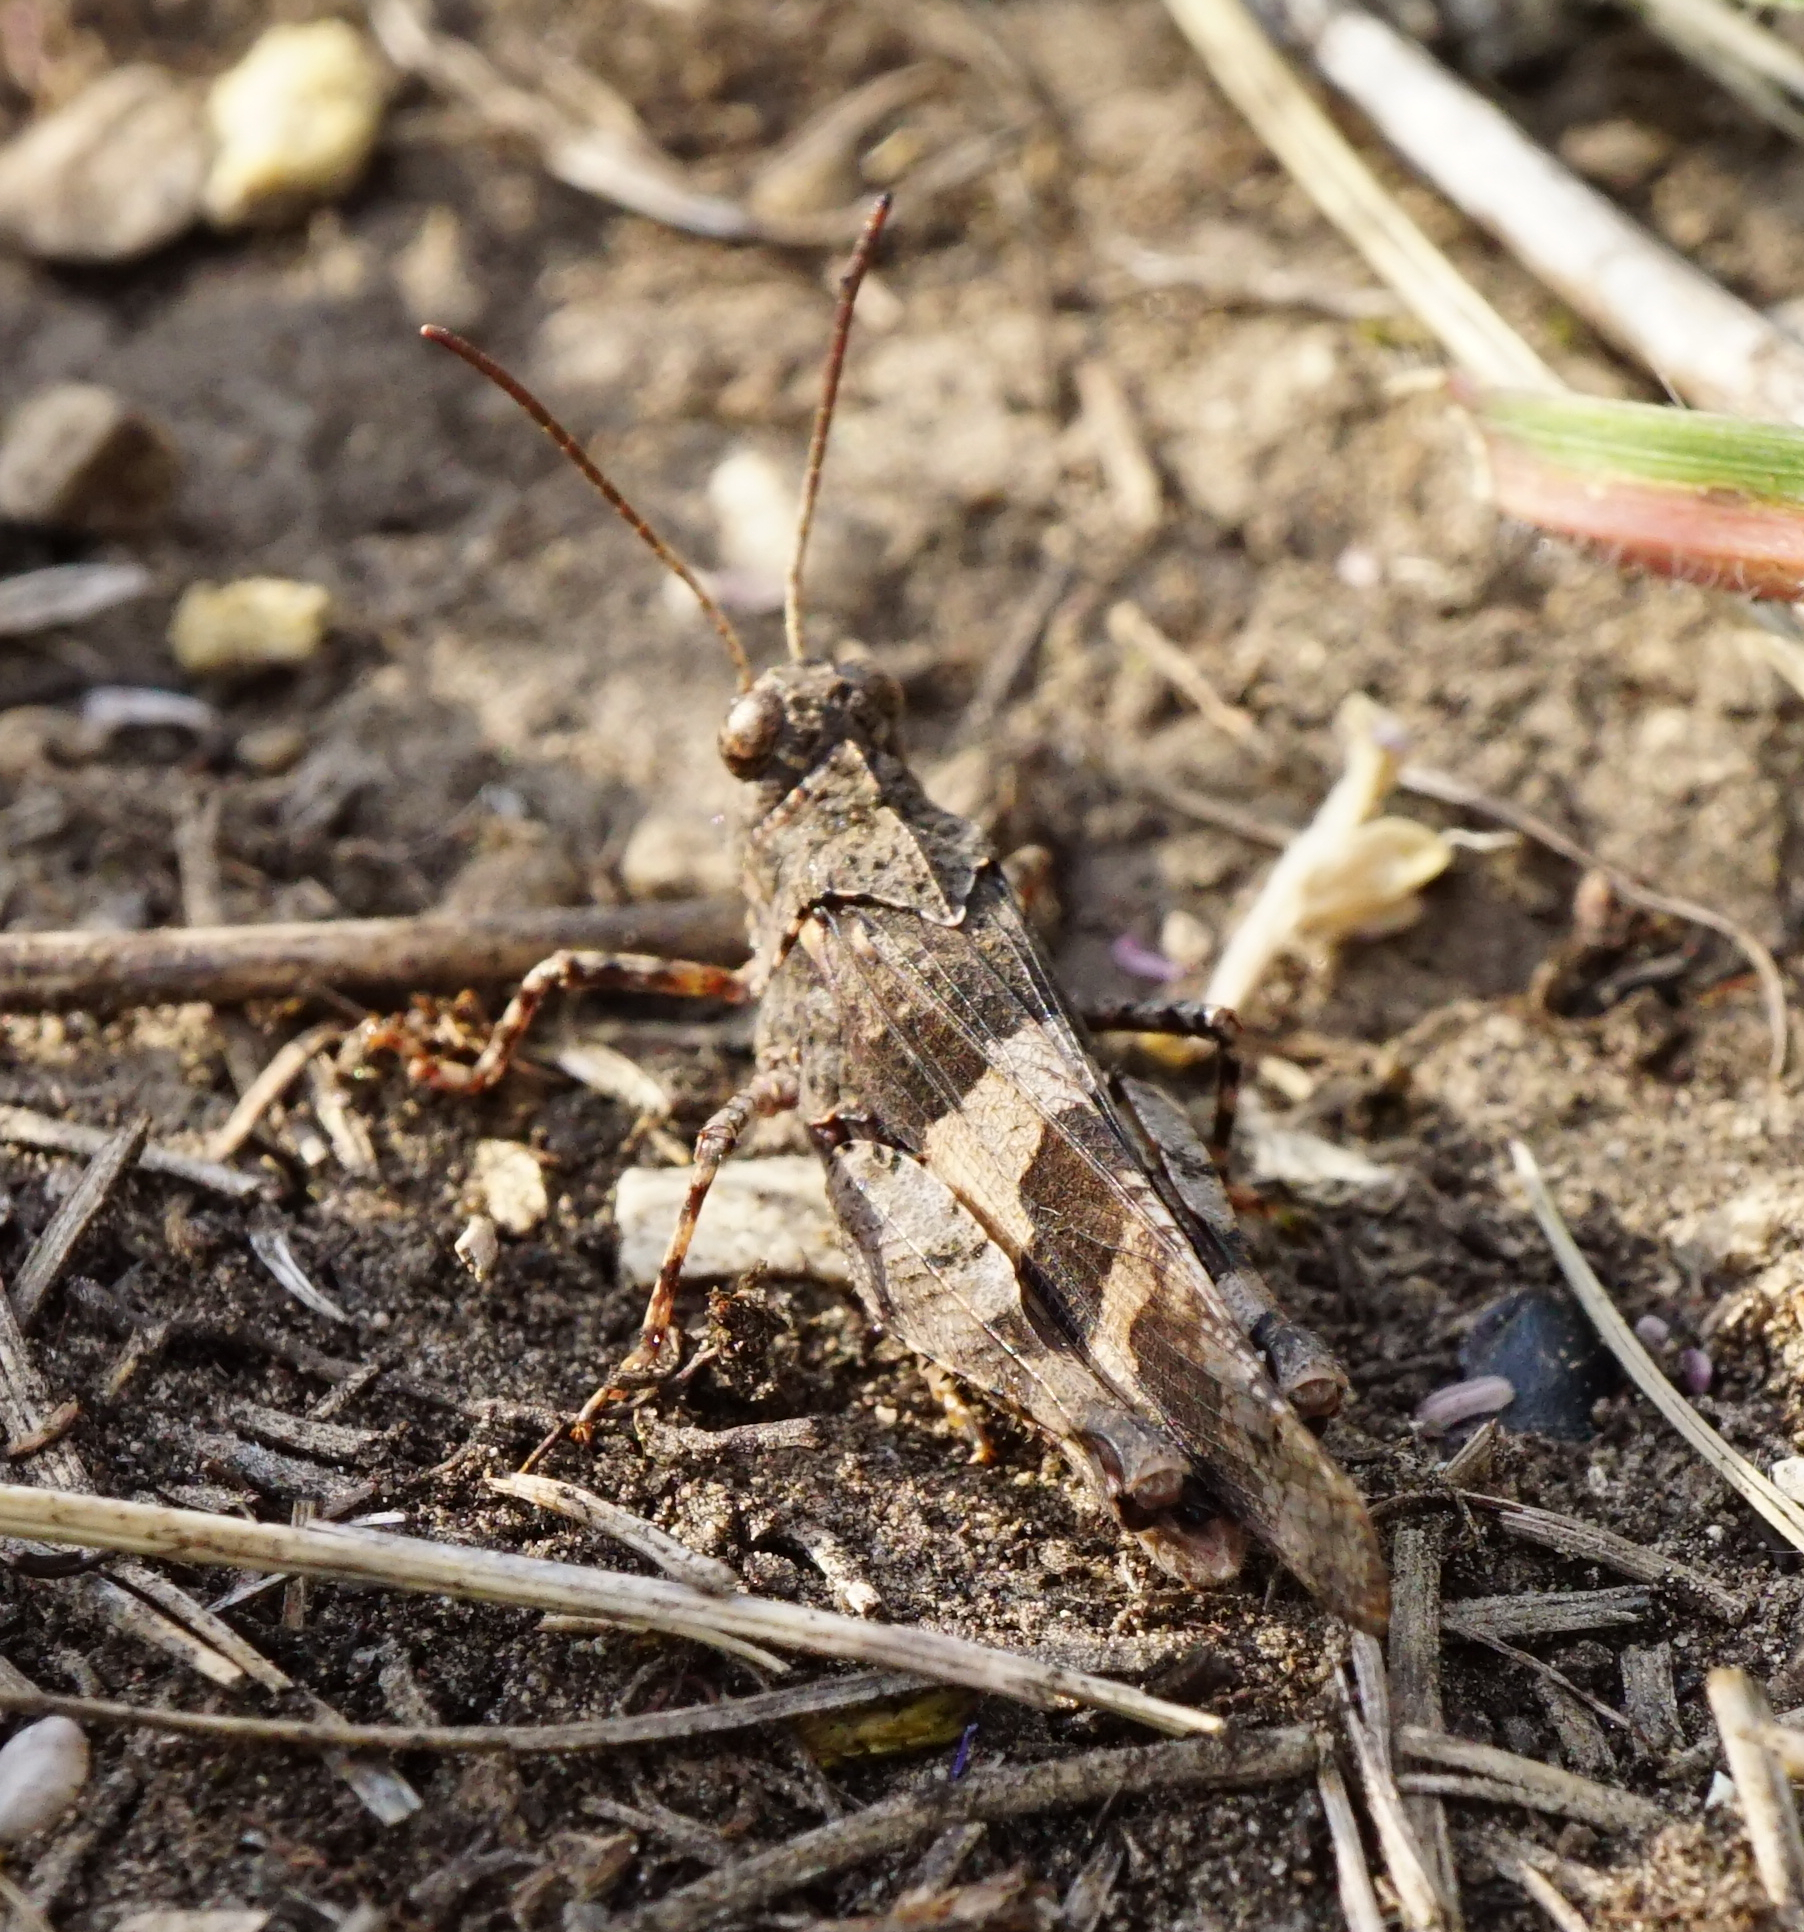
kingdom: Animalia
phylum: Arthropoda
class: Insecta
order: Orthoptera
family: Acrididae
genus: Oedipoda
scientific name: Oedipoda caerulescens
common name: Blue-winged grasshopper
